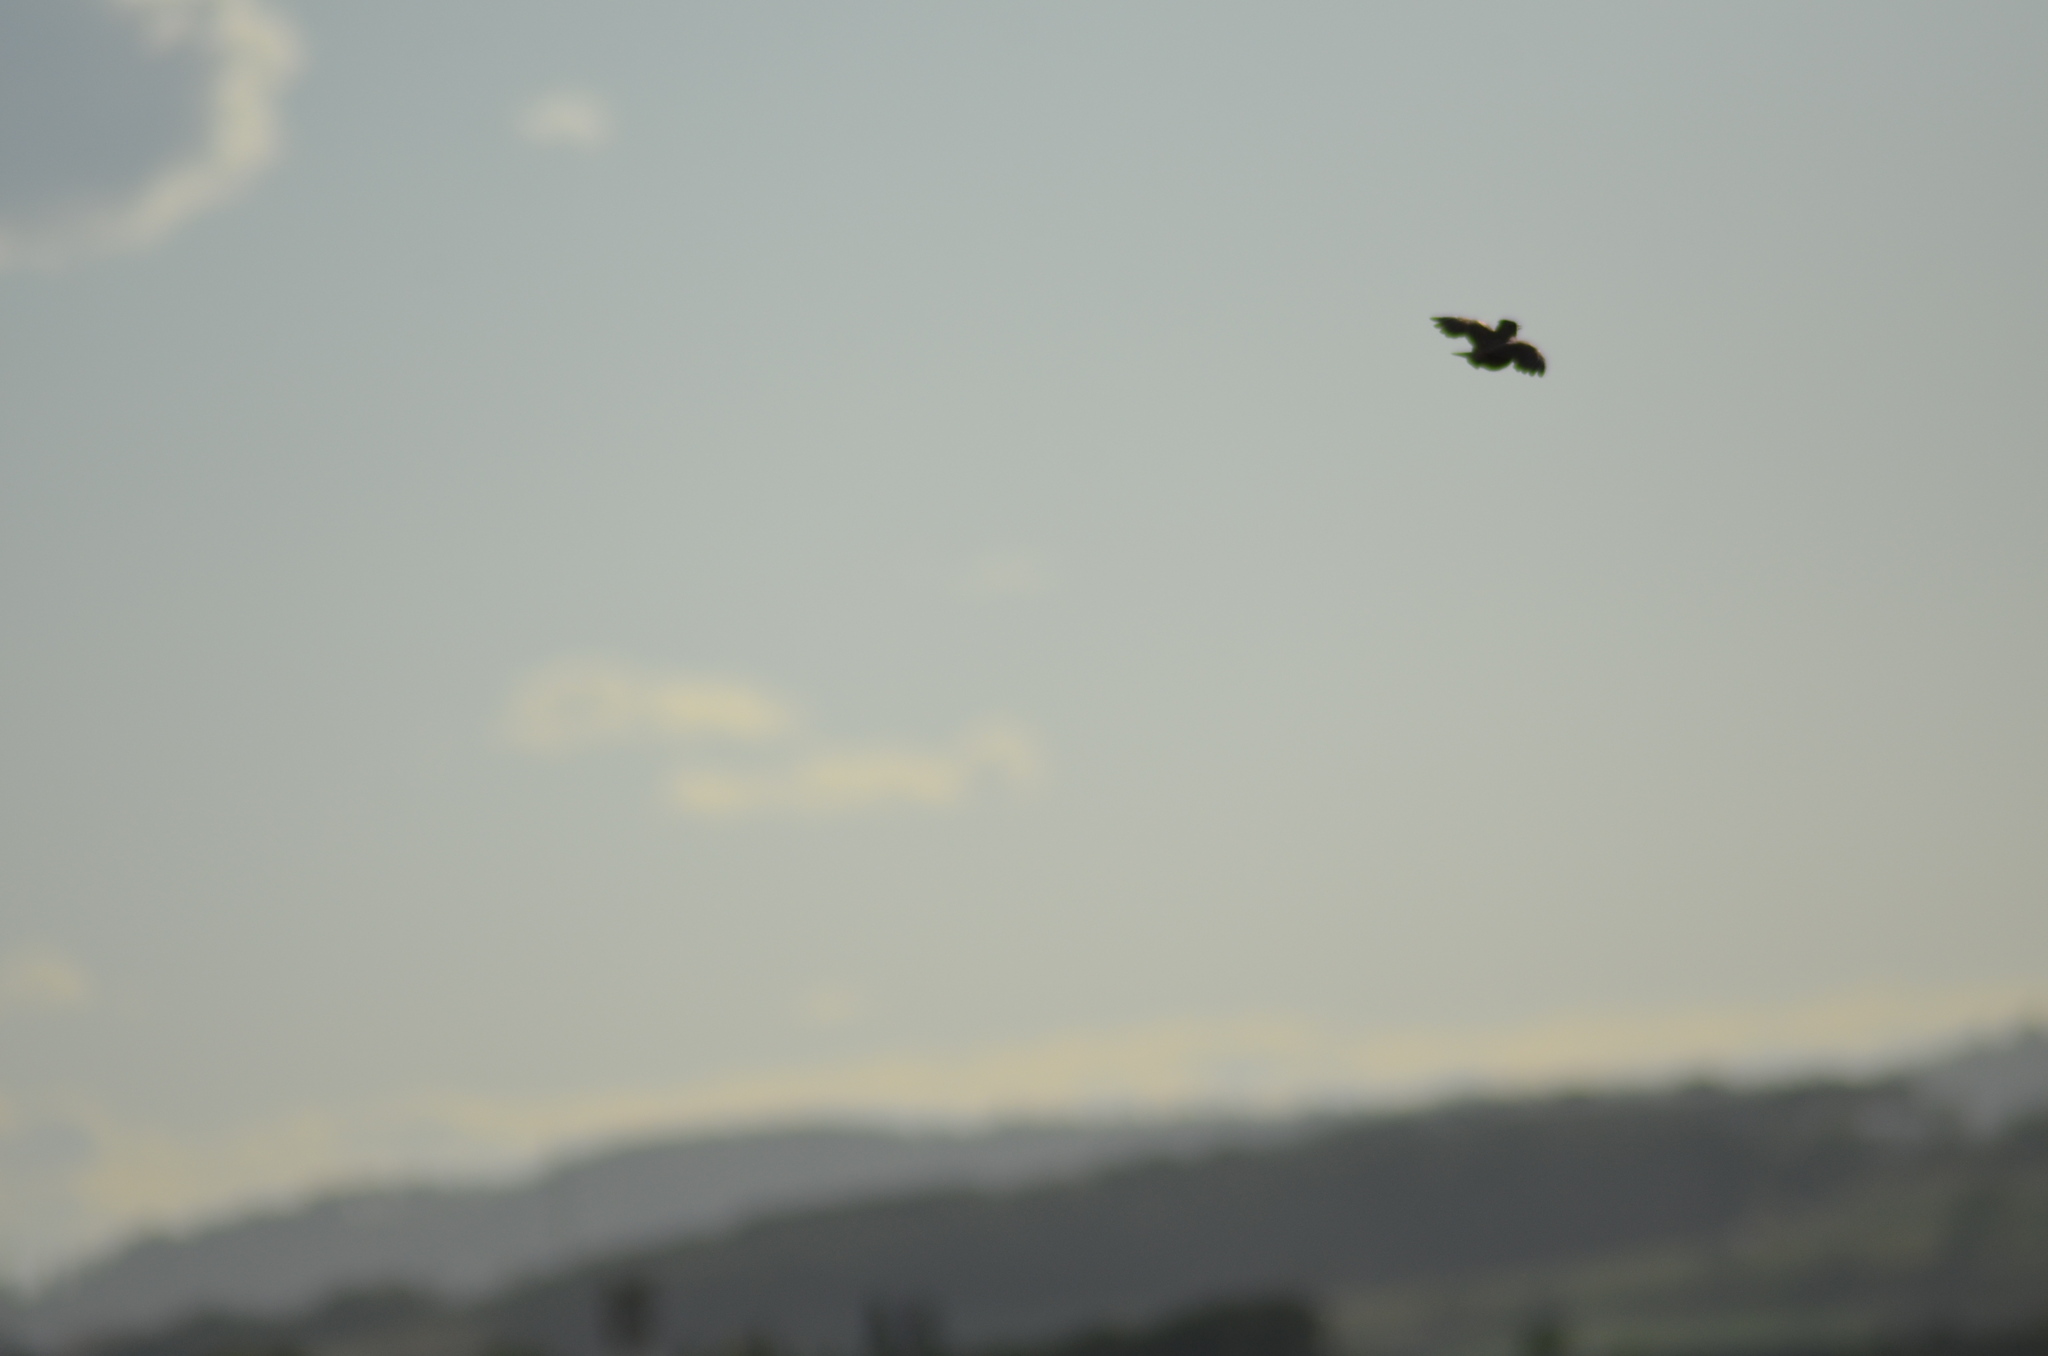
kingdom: Animalia
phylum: Chordata
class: Aves
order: Passeriformes
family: Alaudidae
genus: Galerida
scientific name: Galerida cristata
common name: Crested lark
